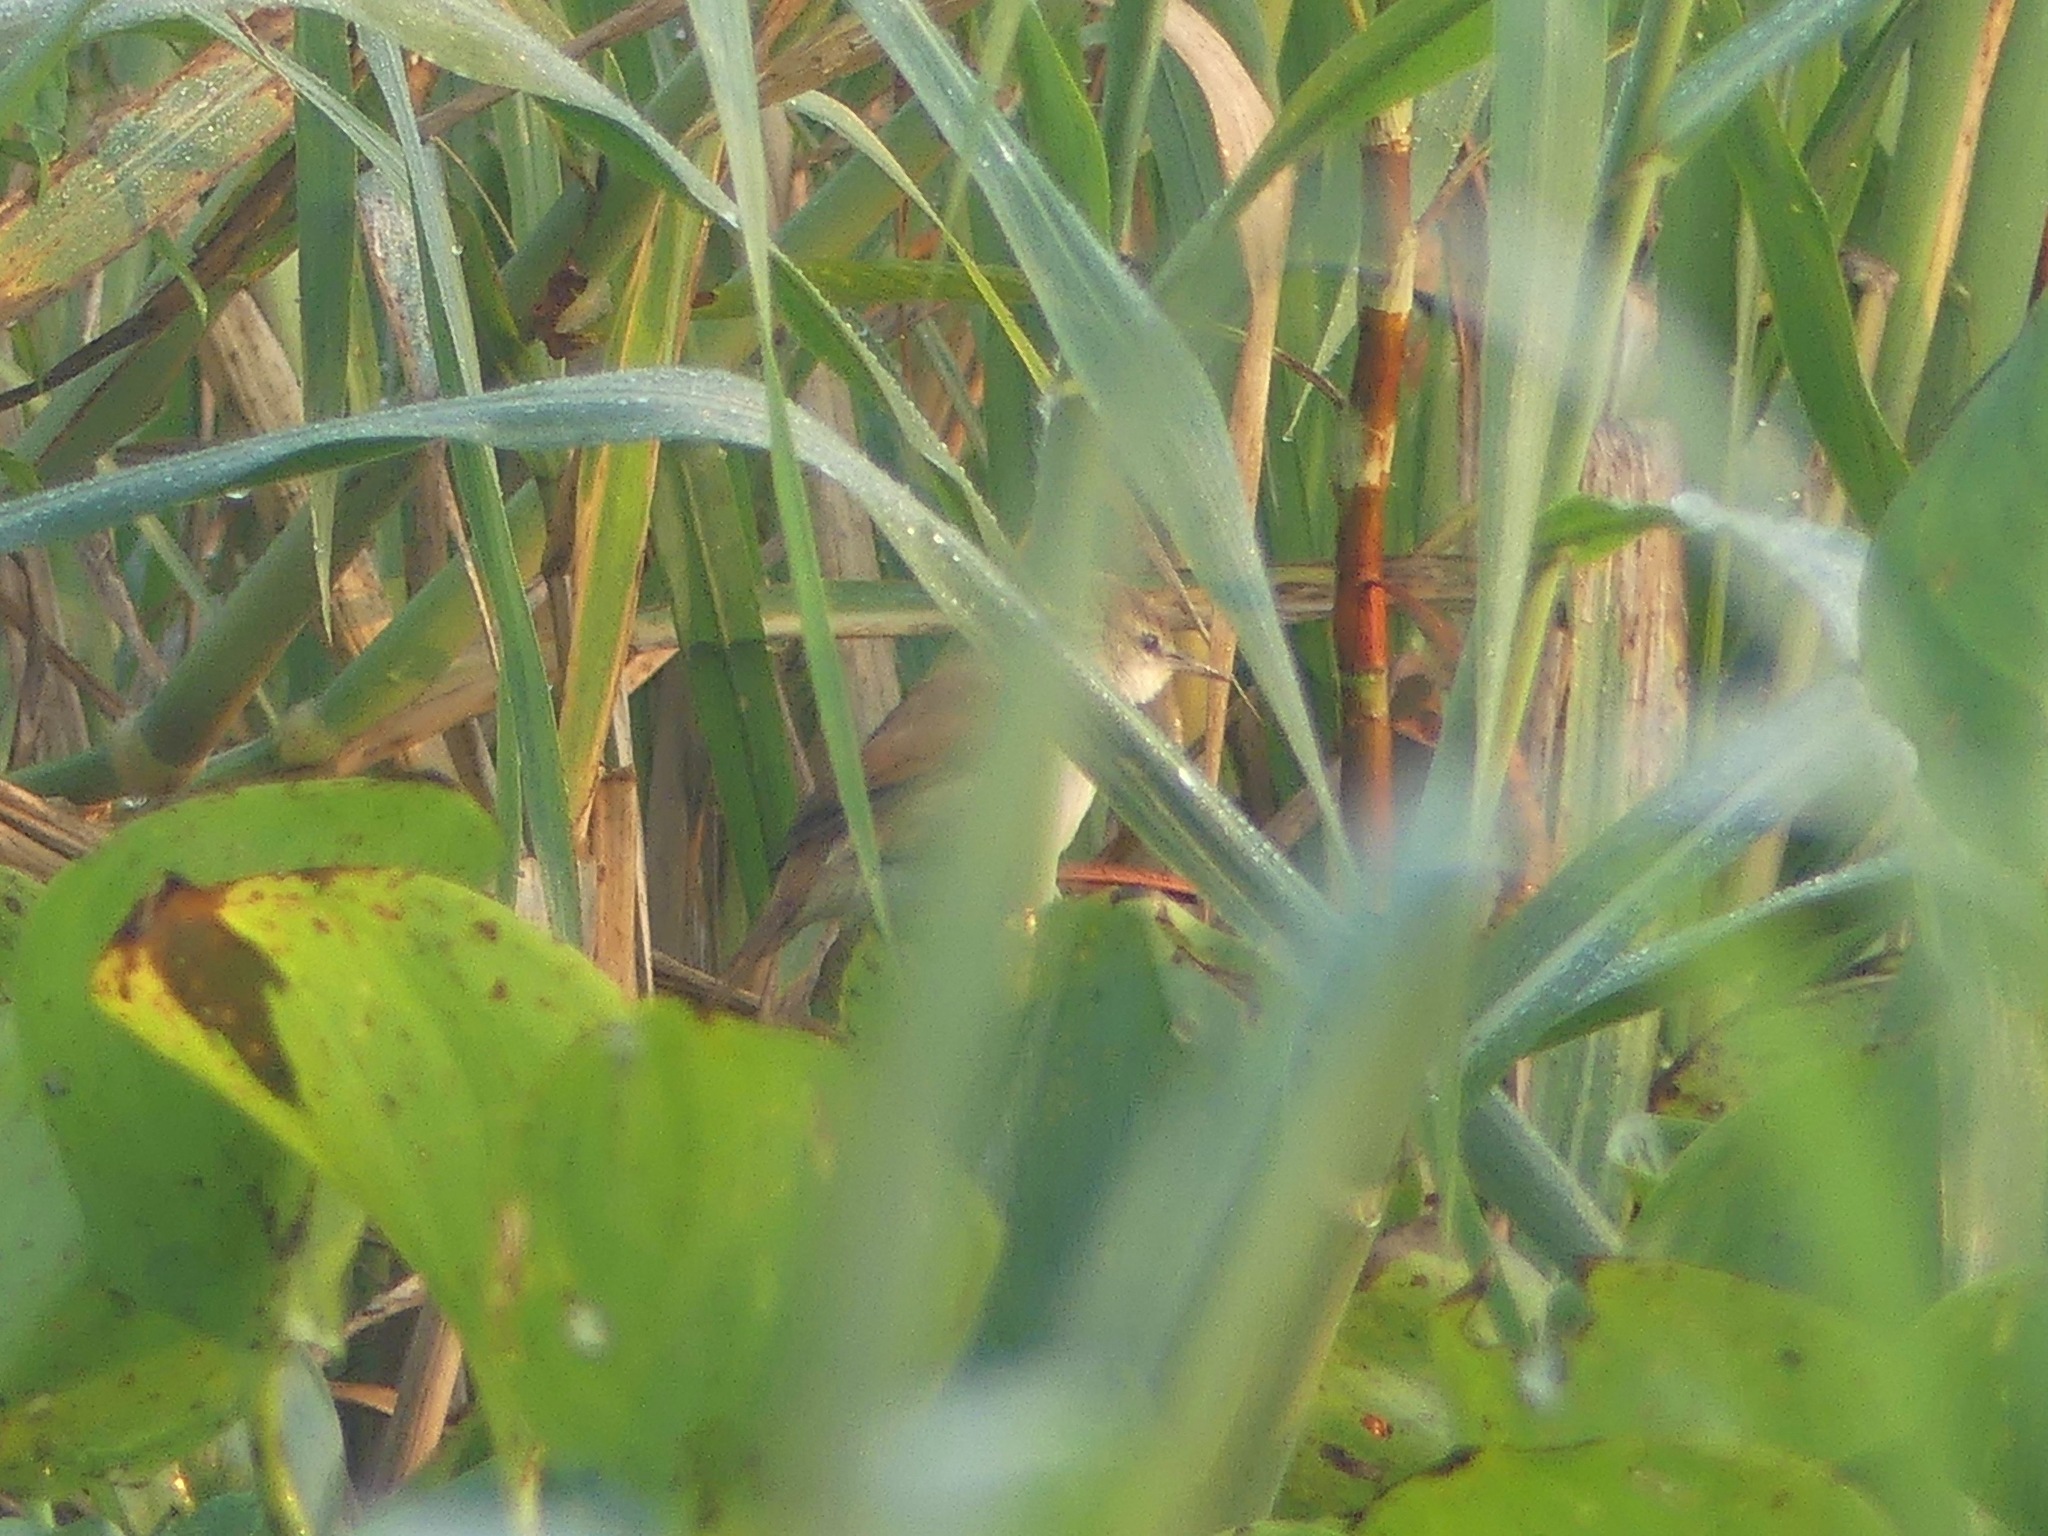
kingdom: Animalia
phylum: Chordata
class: Aves
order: Passeriformes
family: Furnariidae
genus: Certhiaxis
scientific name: Certhiaxis cinnamomeus
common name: Yellow-chinned spinetail
